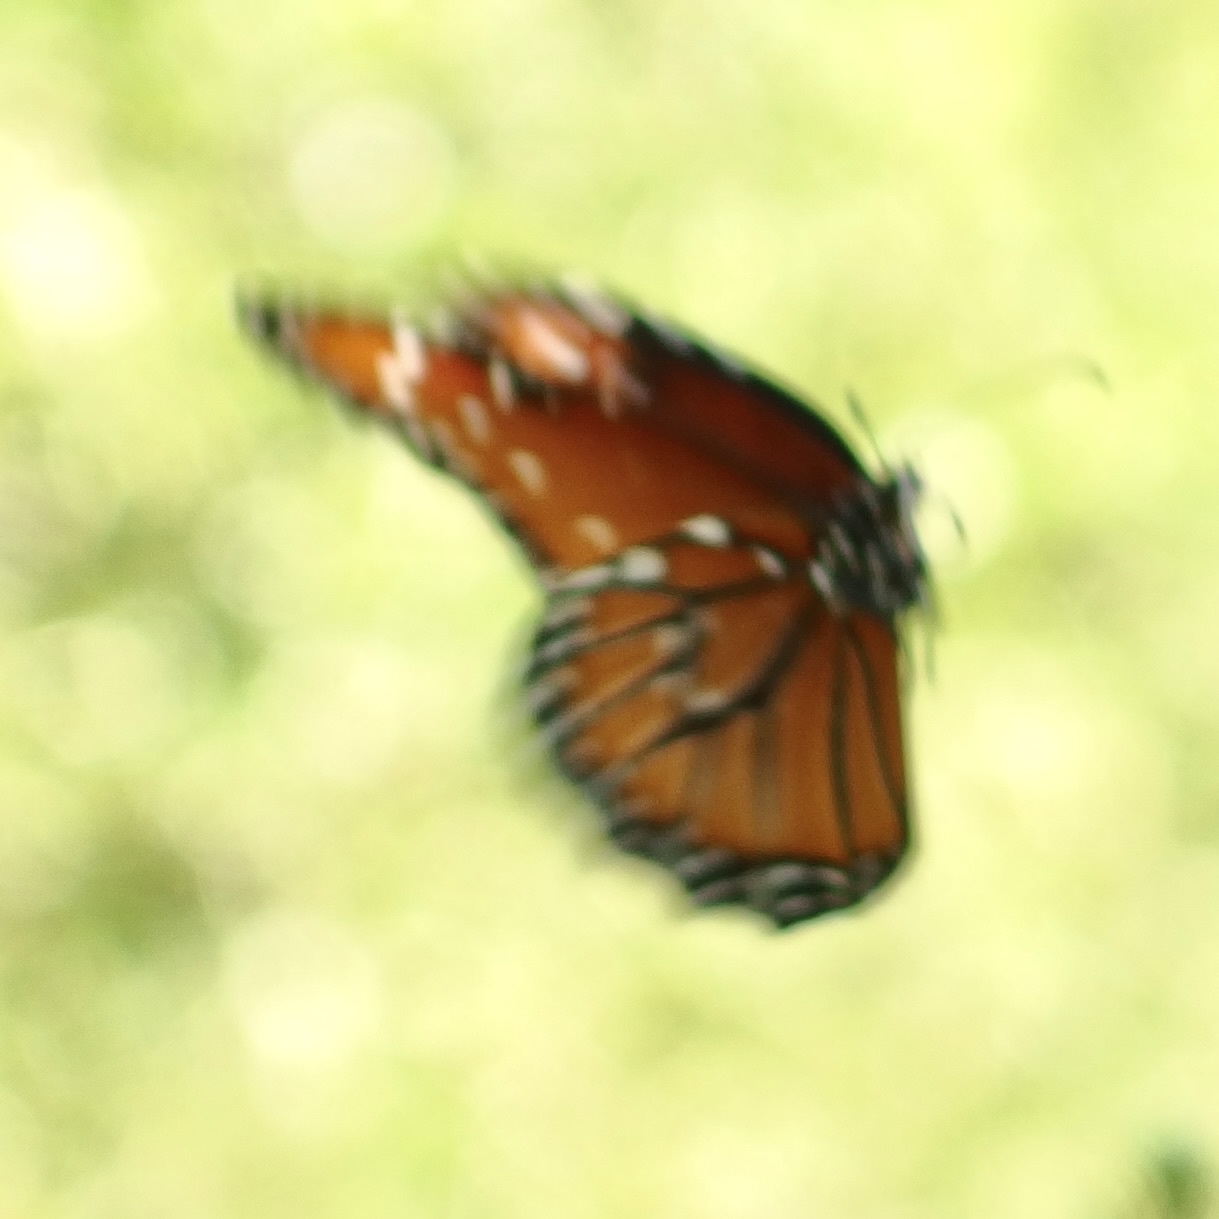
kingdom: Animalia
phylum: Arthropoda
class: Insecta
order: Lepidoptera
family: Nymphalidae
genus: Danaus
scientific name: Danaus gilippus
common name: Queen
